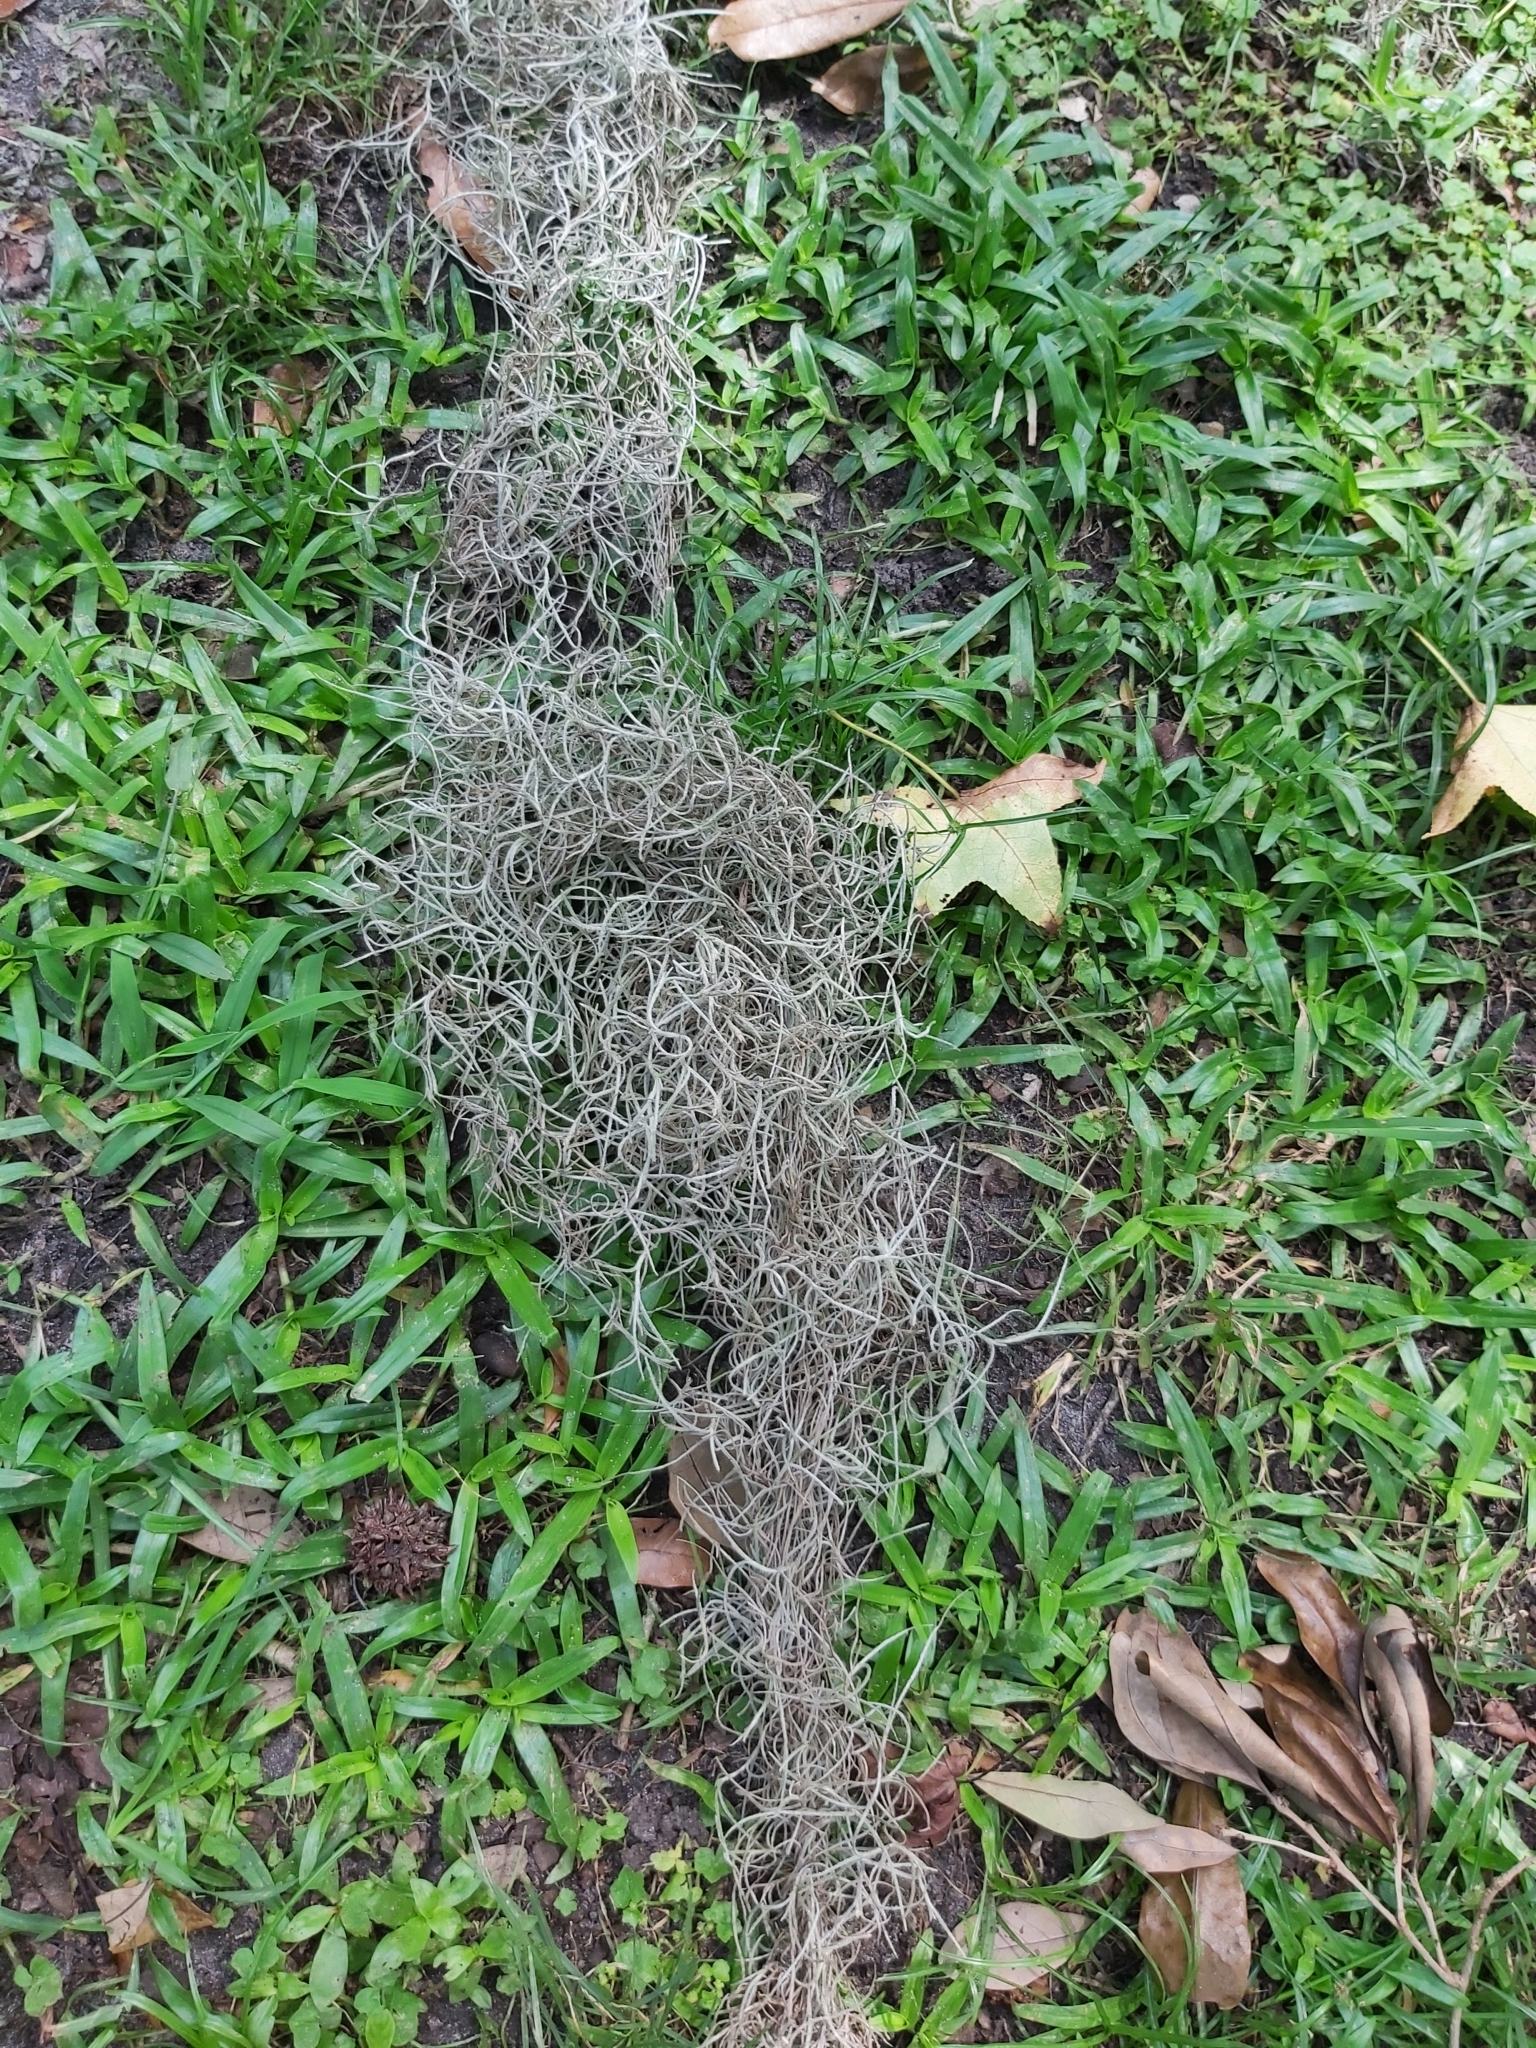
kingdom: Plantae
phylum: Tracheophyta
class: Liliopsida
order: Poales
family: Bromeliaceae
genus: Tillandsia
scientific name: Tillandsia usneoides
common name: Spanish moss
